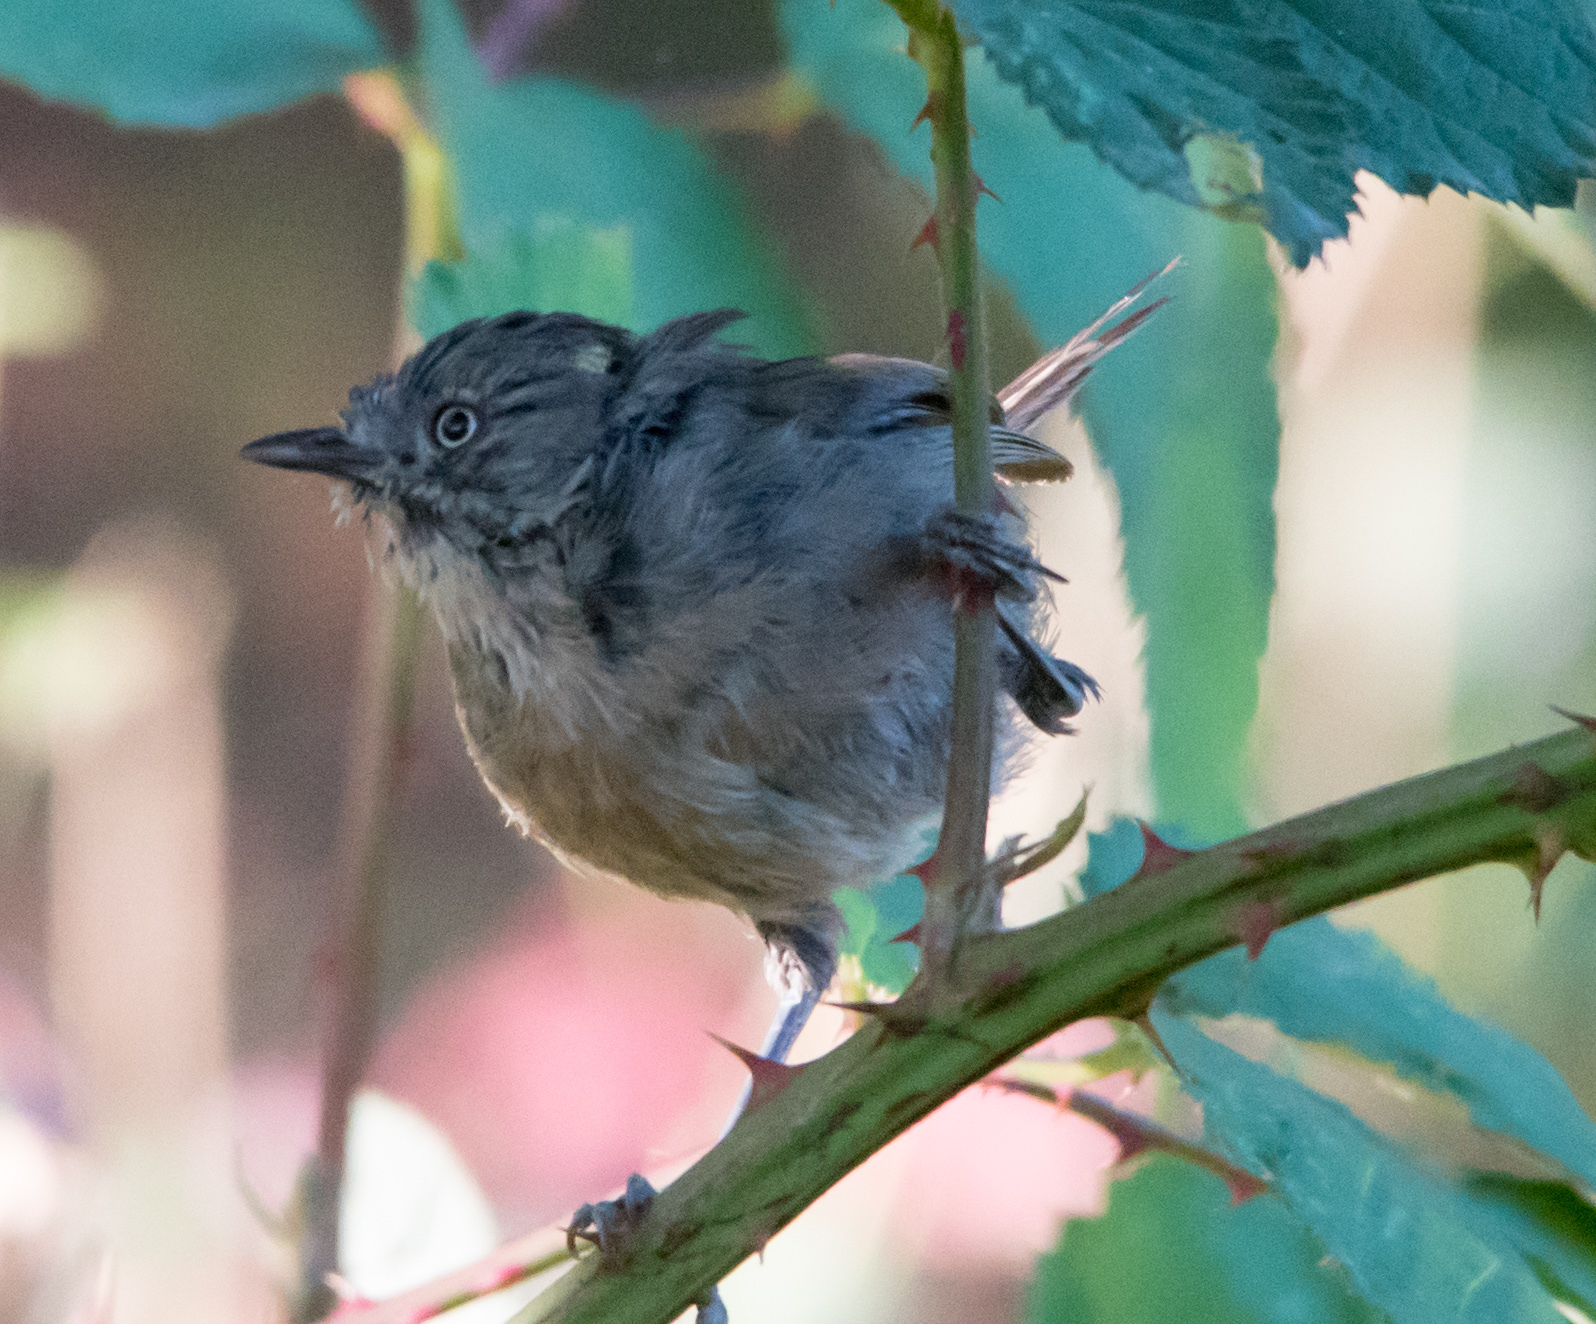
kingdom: Animalia
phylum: Chordata
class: Aves
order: Passeriformes
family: Sylviidae
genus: Chamaea
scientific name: Chamaea fasciata
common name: Wrentit
